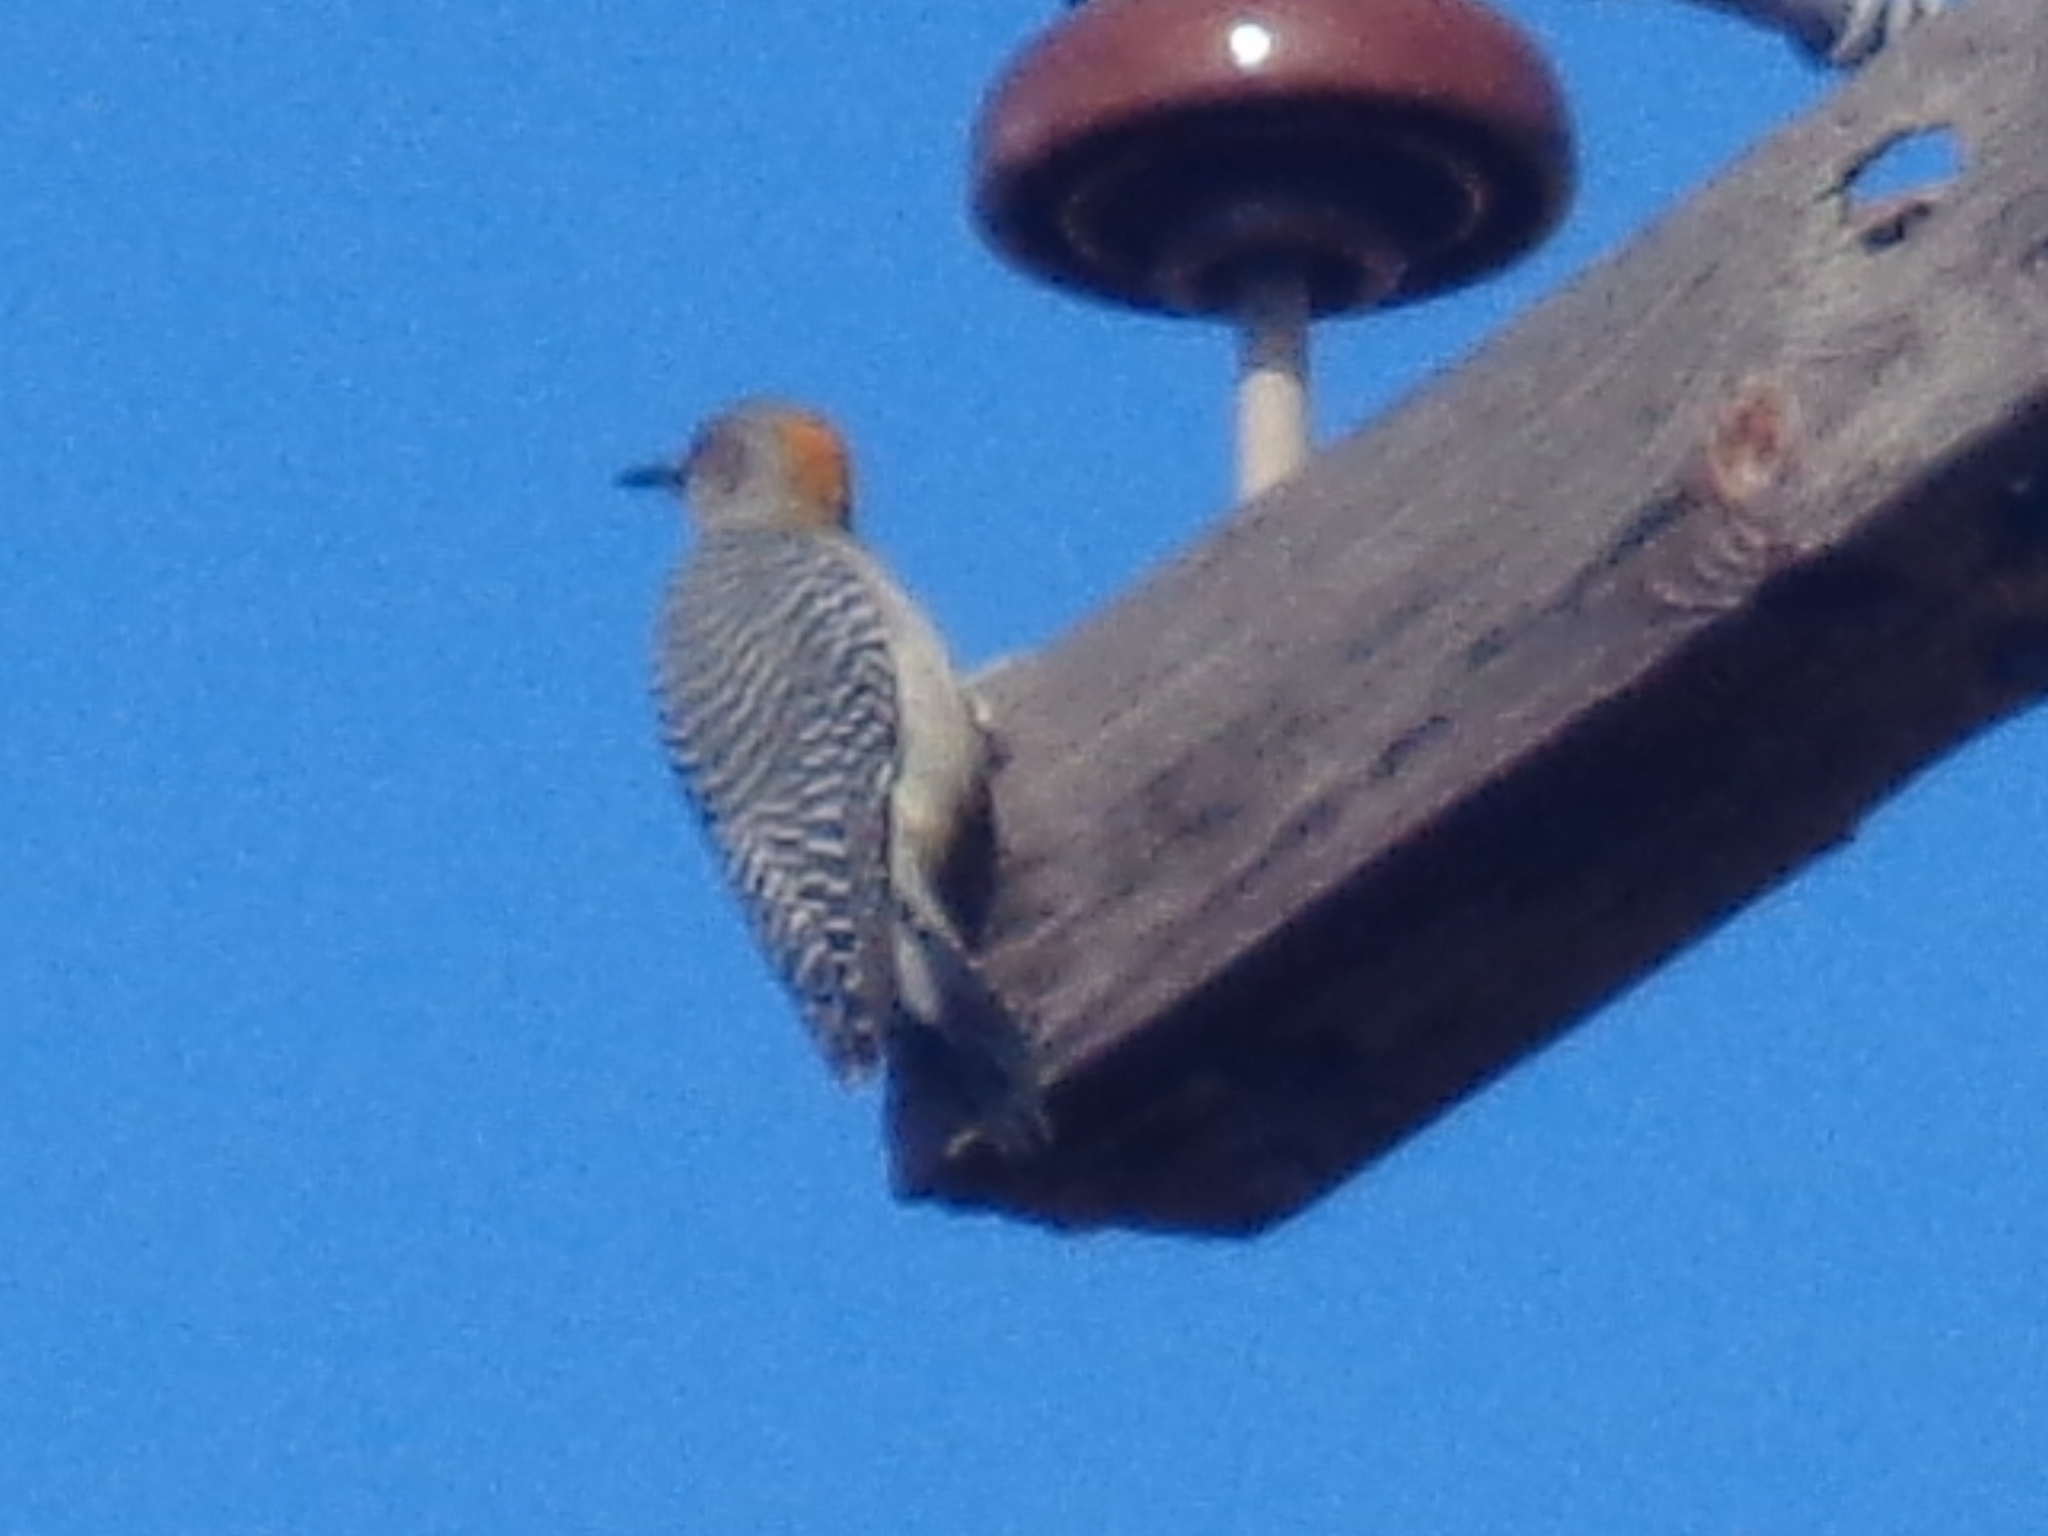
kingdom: Animalia
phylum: Chordata
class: Aves
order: Piciformes
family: Picidae
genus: Melanerpes
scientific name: Melanerpes aurifrons
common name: Golden-fronted woodpecker
